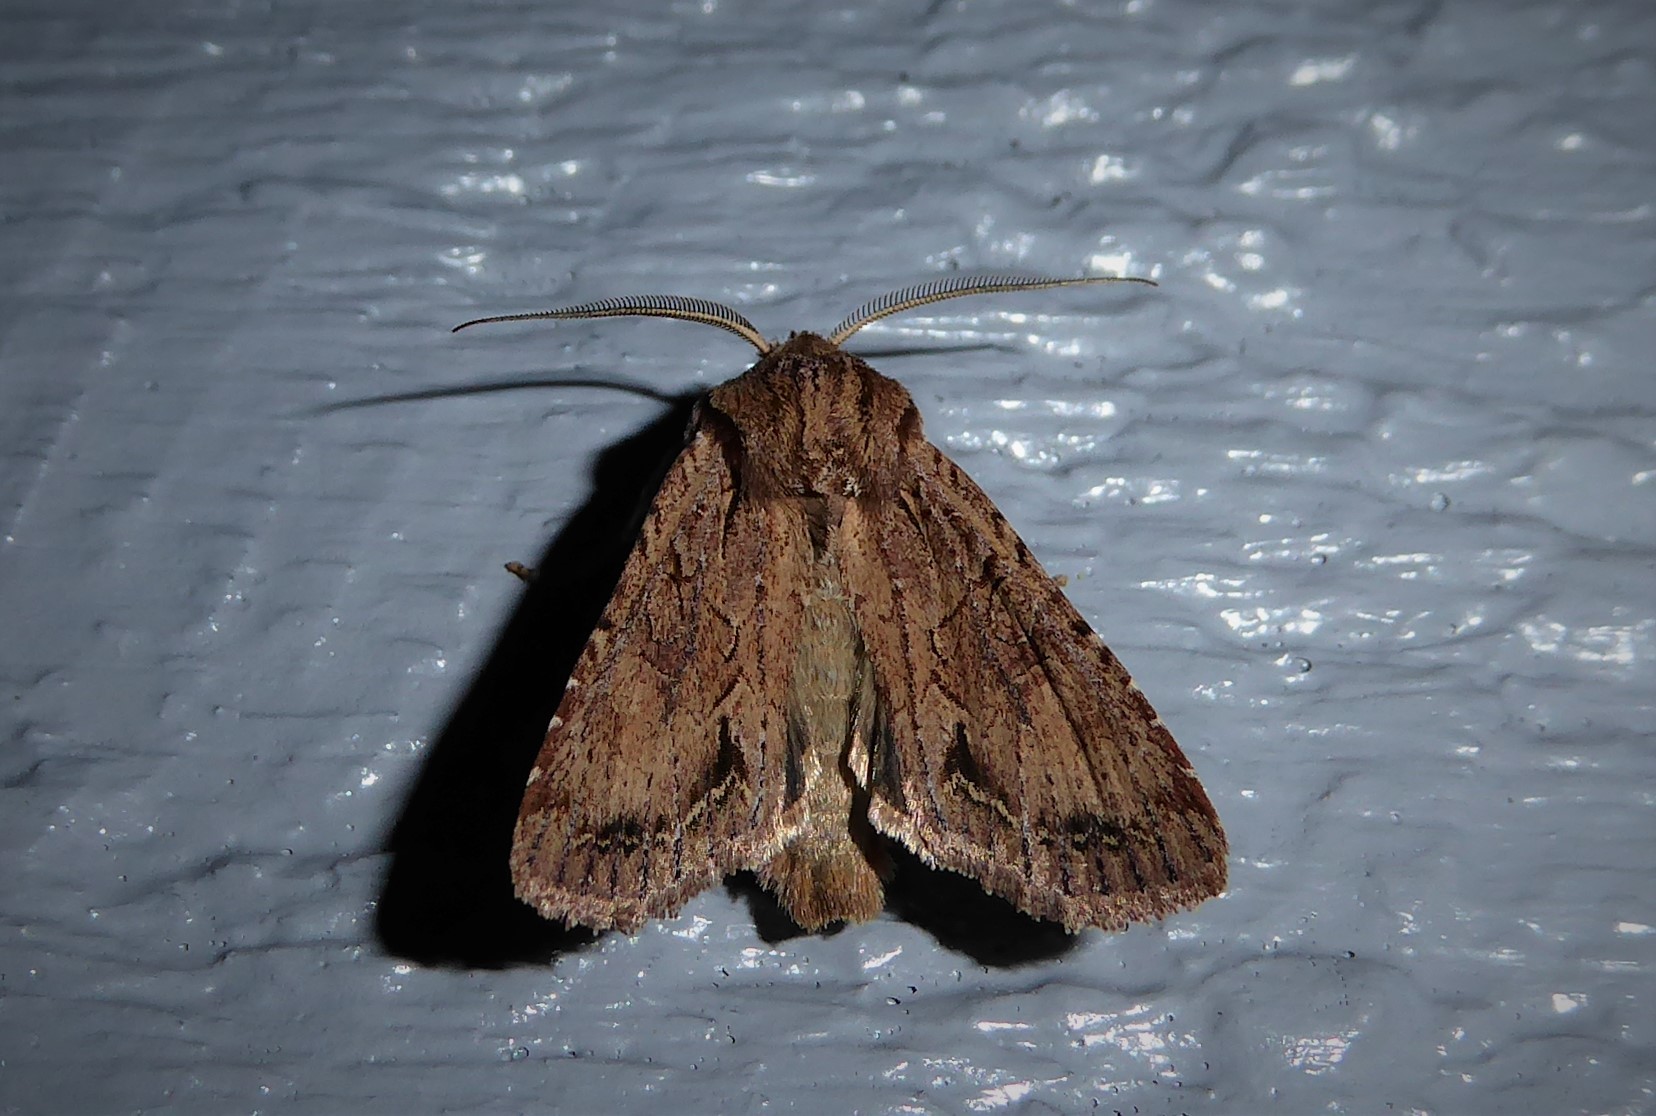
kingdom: Animalia
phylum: Arthropoda
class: Insecta
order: Lepidoptera
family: Noctuidae
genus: Ichneutica
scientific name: Ichneutica
